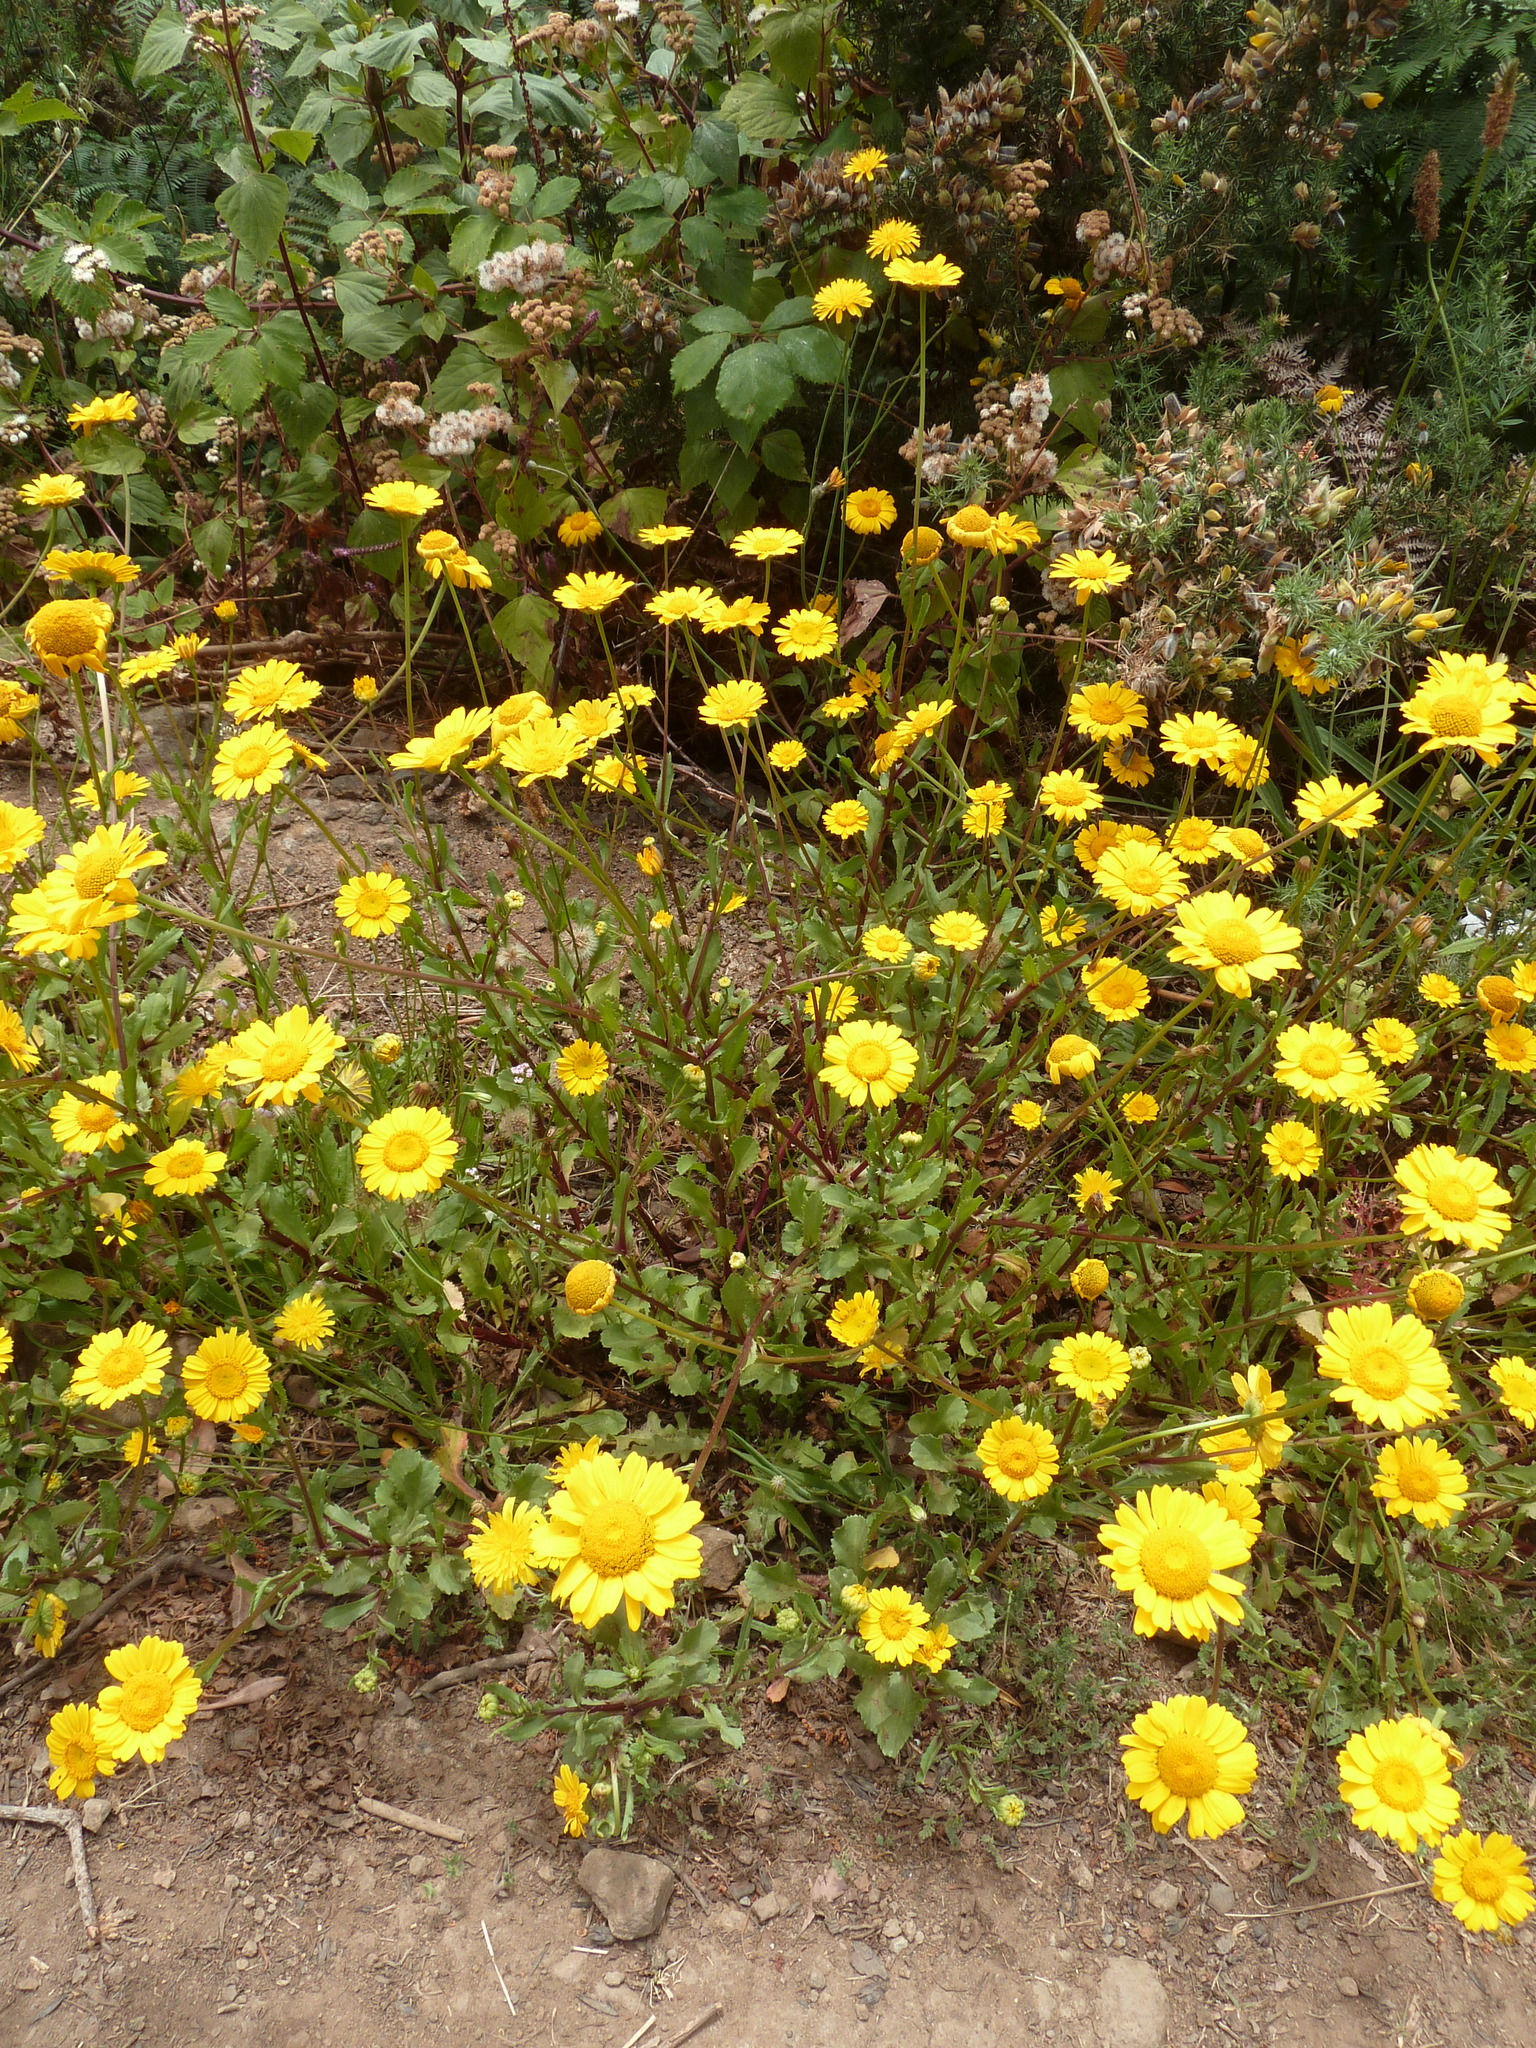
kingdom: Plantae
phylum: Tracheophyta
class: Magnoliopsida
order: Asterales
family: Asteraceae
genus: Coleostephus
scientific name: Coleostephus myconis
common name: Mediterranean marigold
